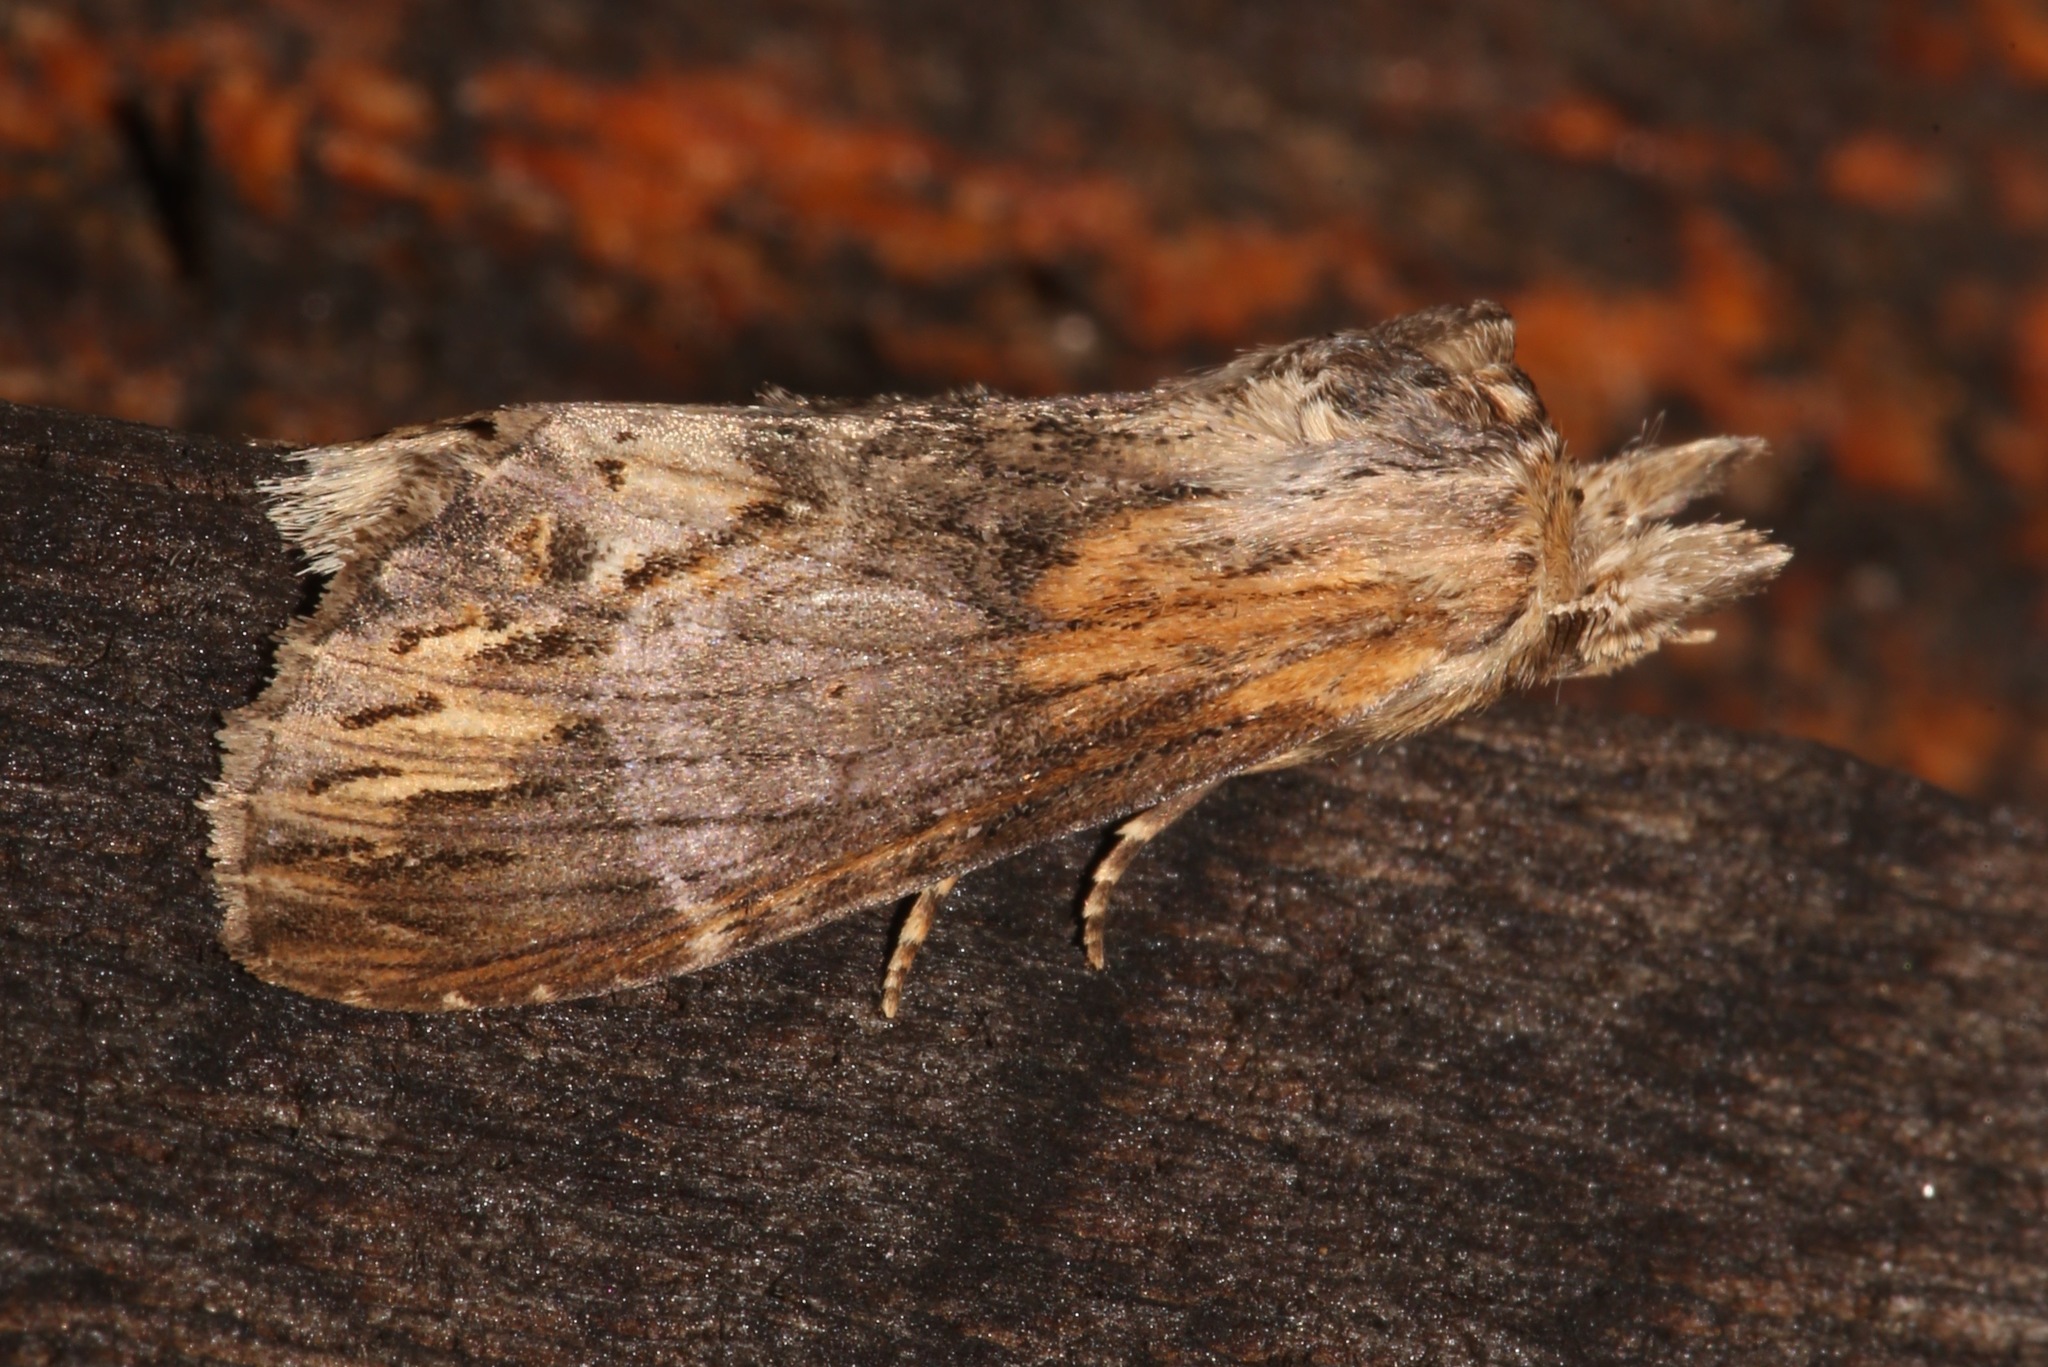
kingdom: Animalia
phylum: Arthropoda
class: Insecta
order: Lepidoptera
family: Notodontidae
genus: Dasylophia
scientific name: Dasylophia thyatiroides
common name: Gray-patched prominent
